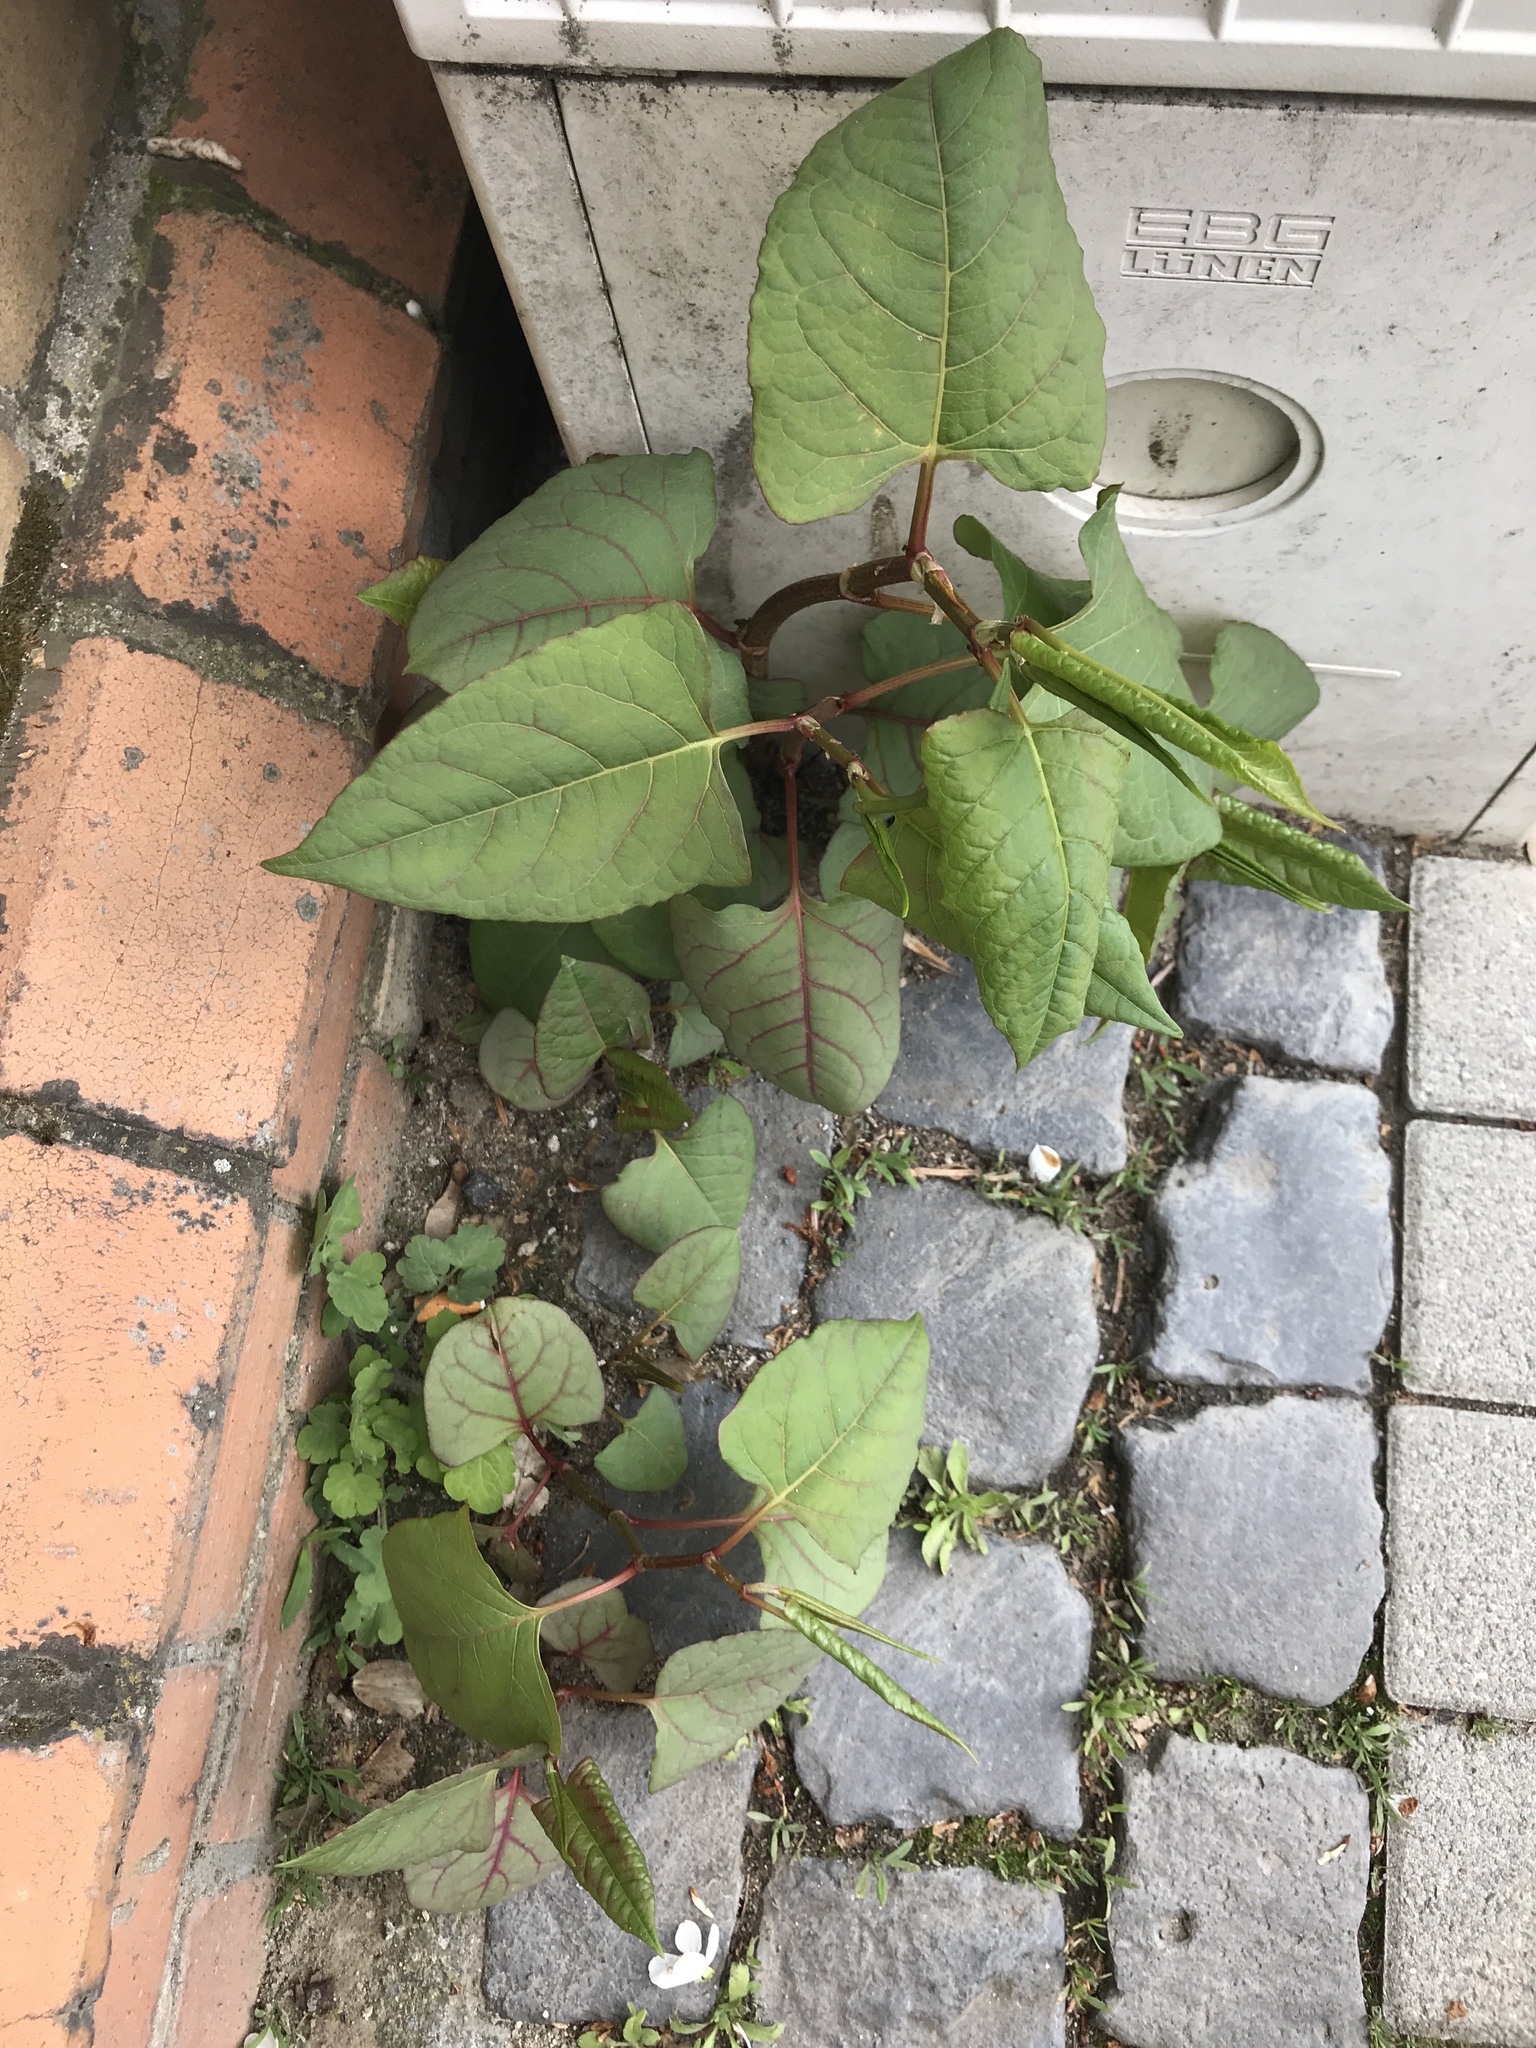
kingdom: Plantae
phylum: Tracheophyta
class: Magnoliopsida
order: Caryophyllales
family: Polygonaceae
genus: Reynoutria
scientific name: Reynoutria bohemica
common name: Bohemian knotweed
